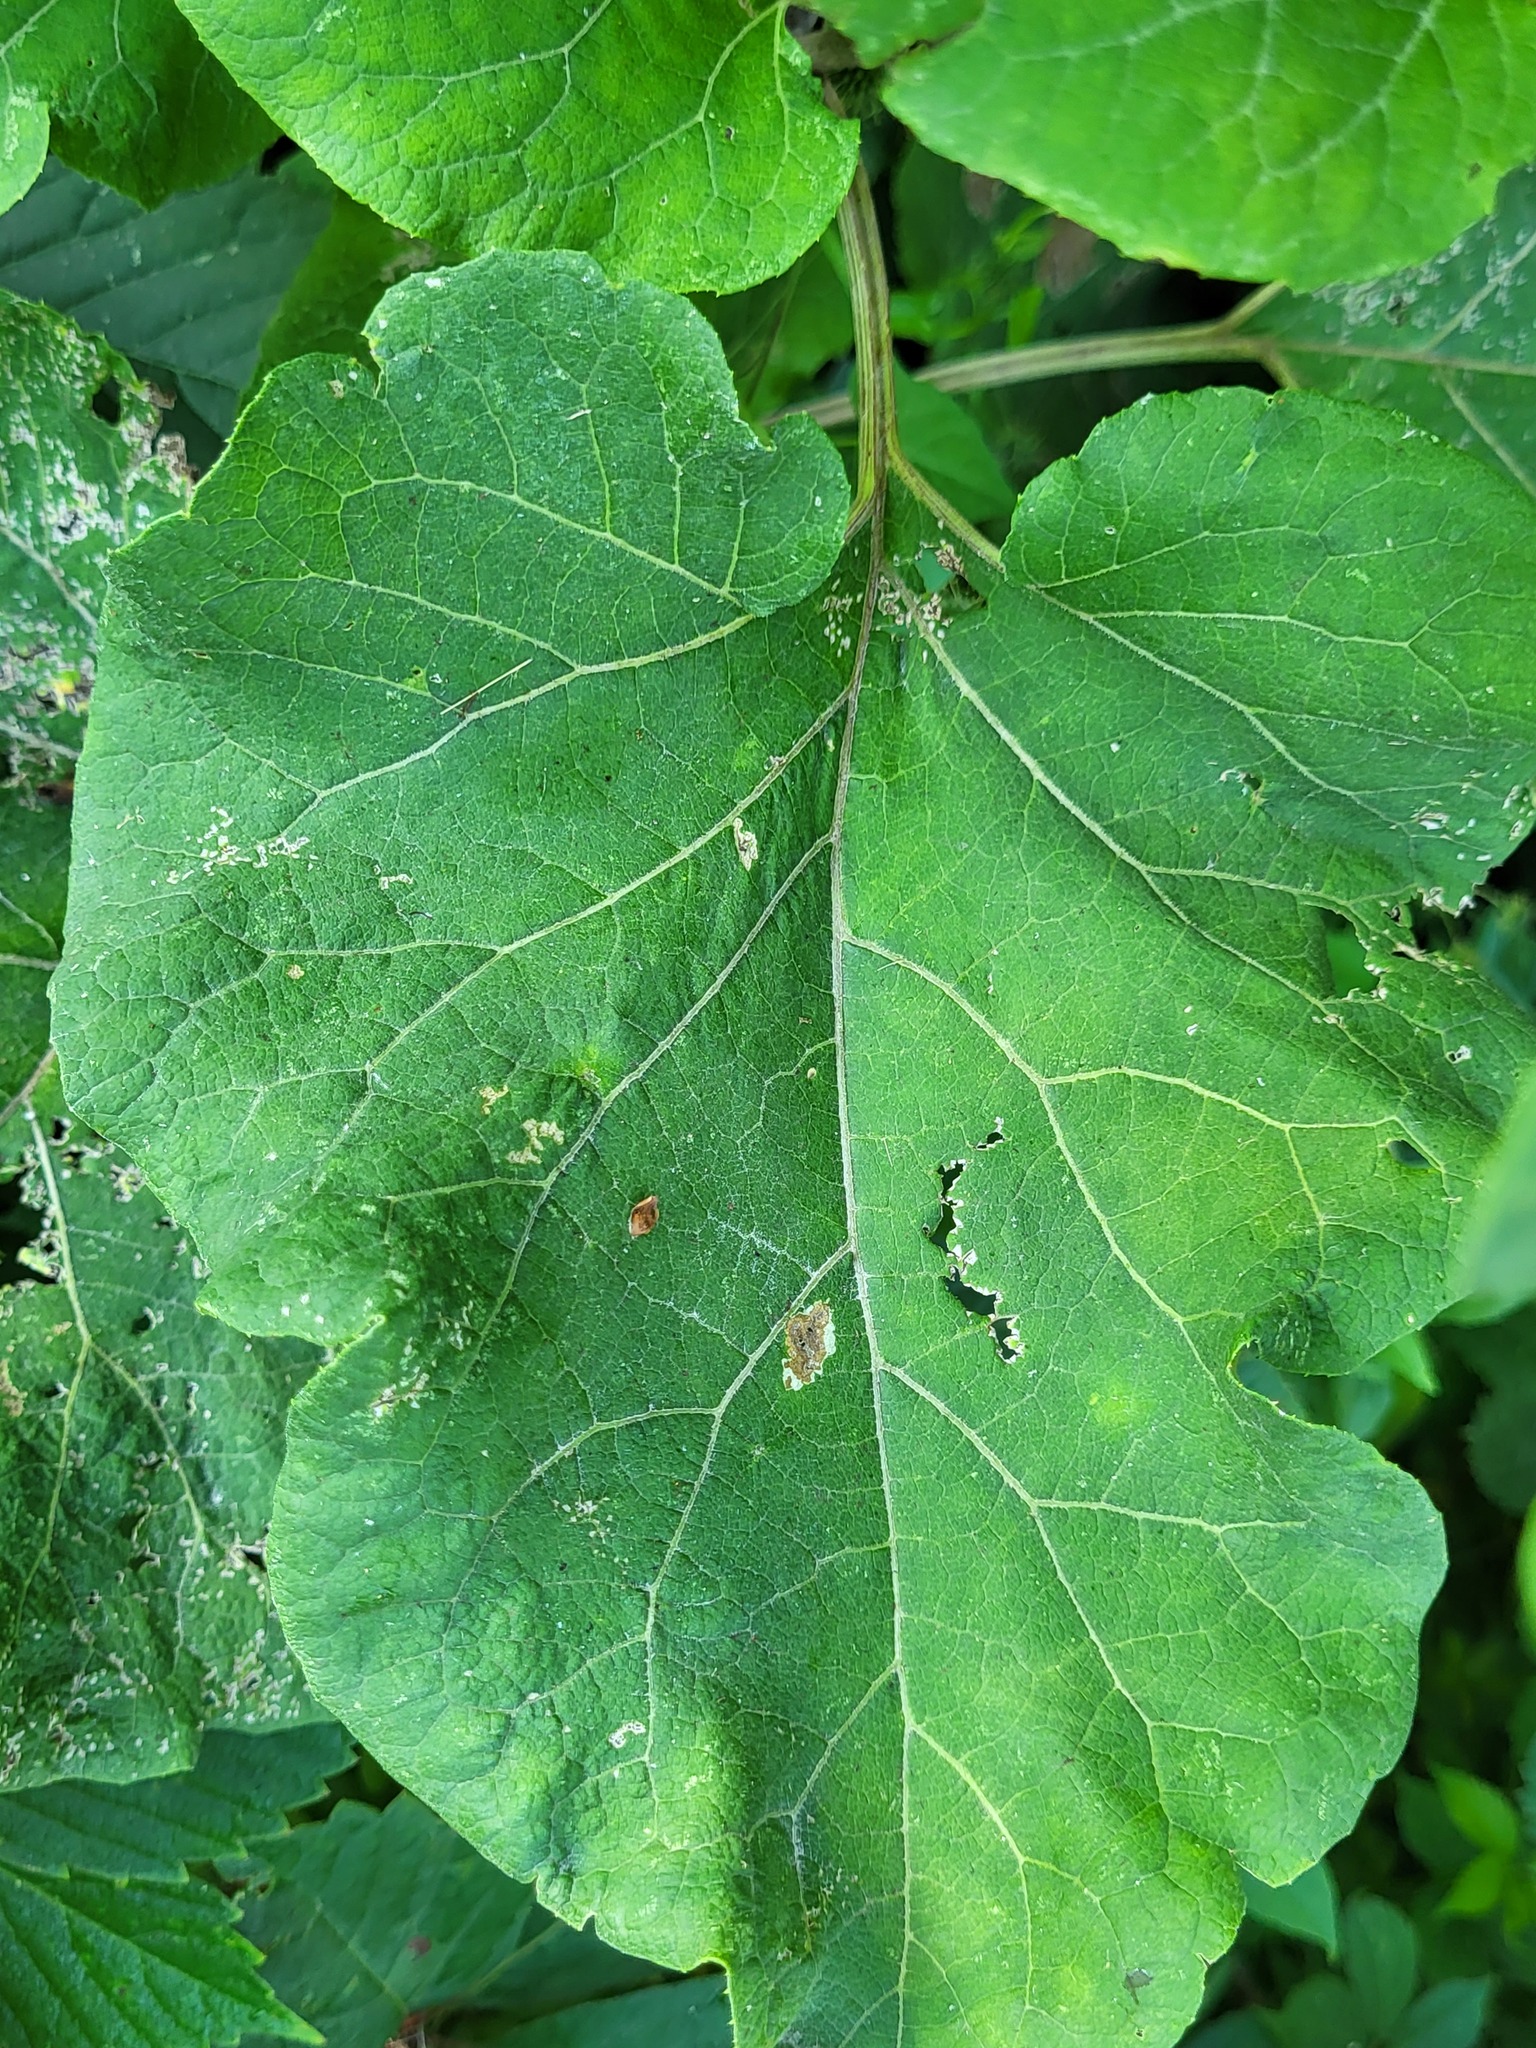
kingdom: Plantae
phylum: Tracheophyta
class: Magnoliopsida
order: Asterales
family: Asteraceae
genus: Arctium
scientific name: Arctium lappa
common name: Greater burdock
